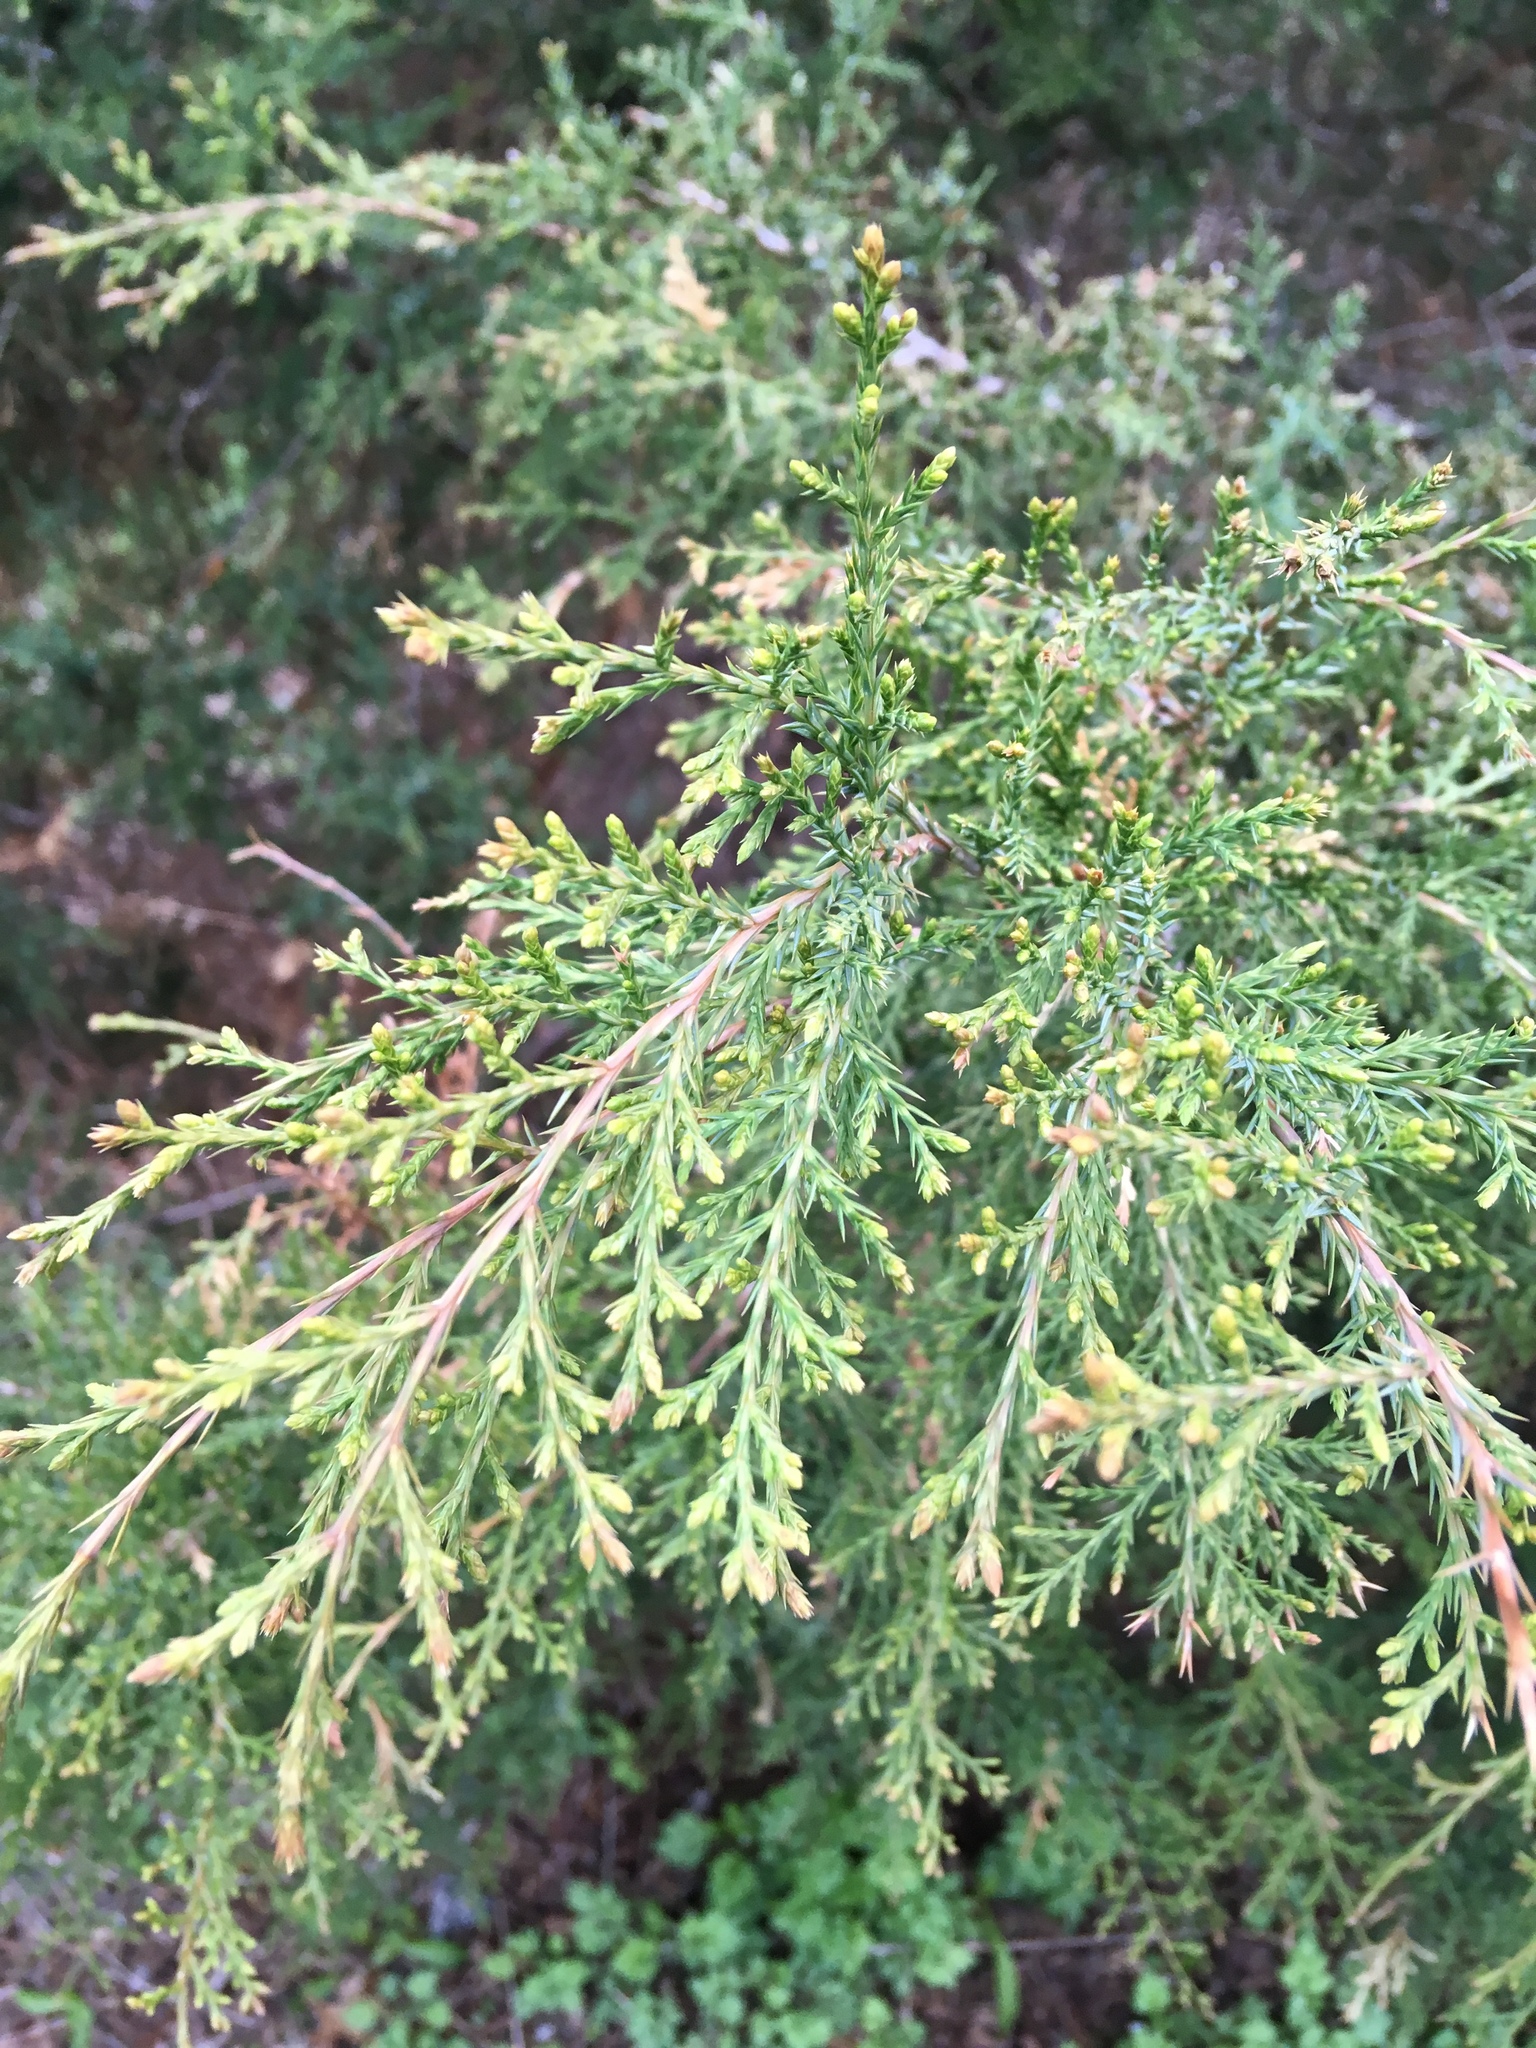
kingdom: Plantae
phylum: Tracheophyta
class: Pinopsida
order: Pinales
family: Cupressaceae
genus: Juniperus
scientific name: Juniperus virginiana
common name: Red juniper
